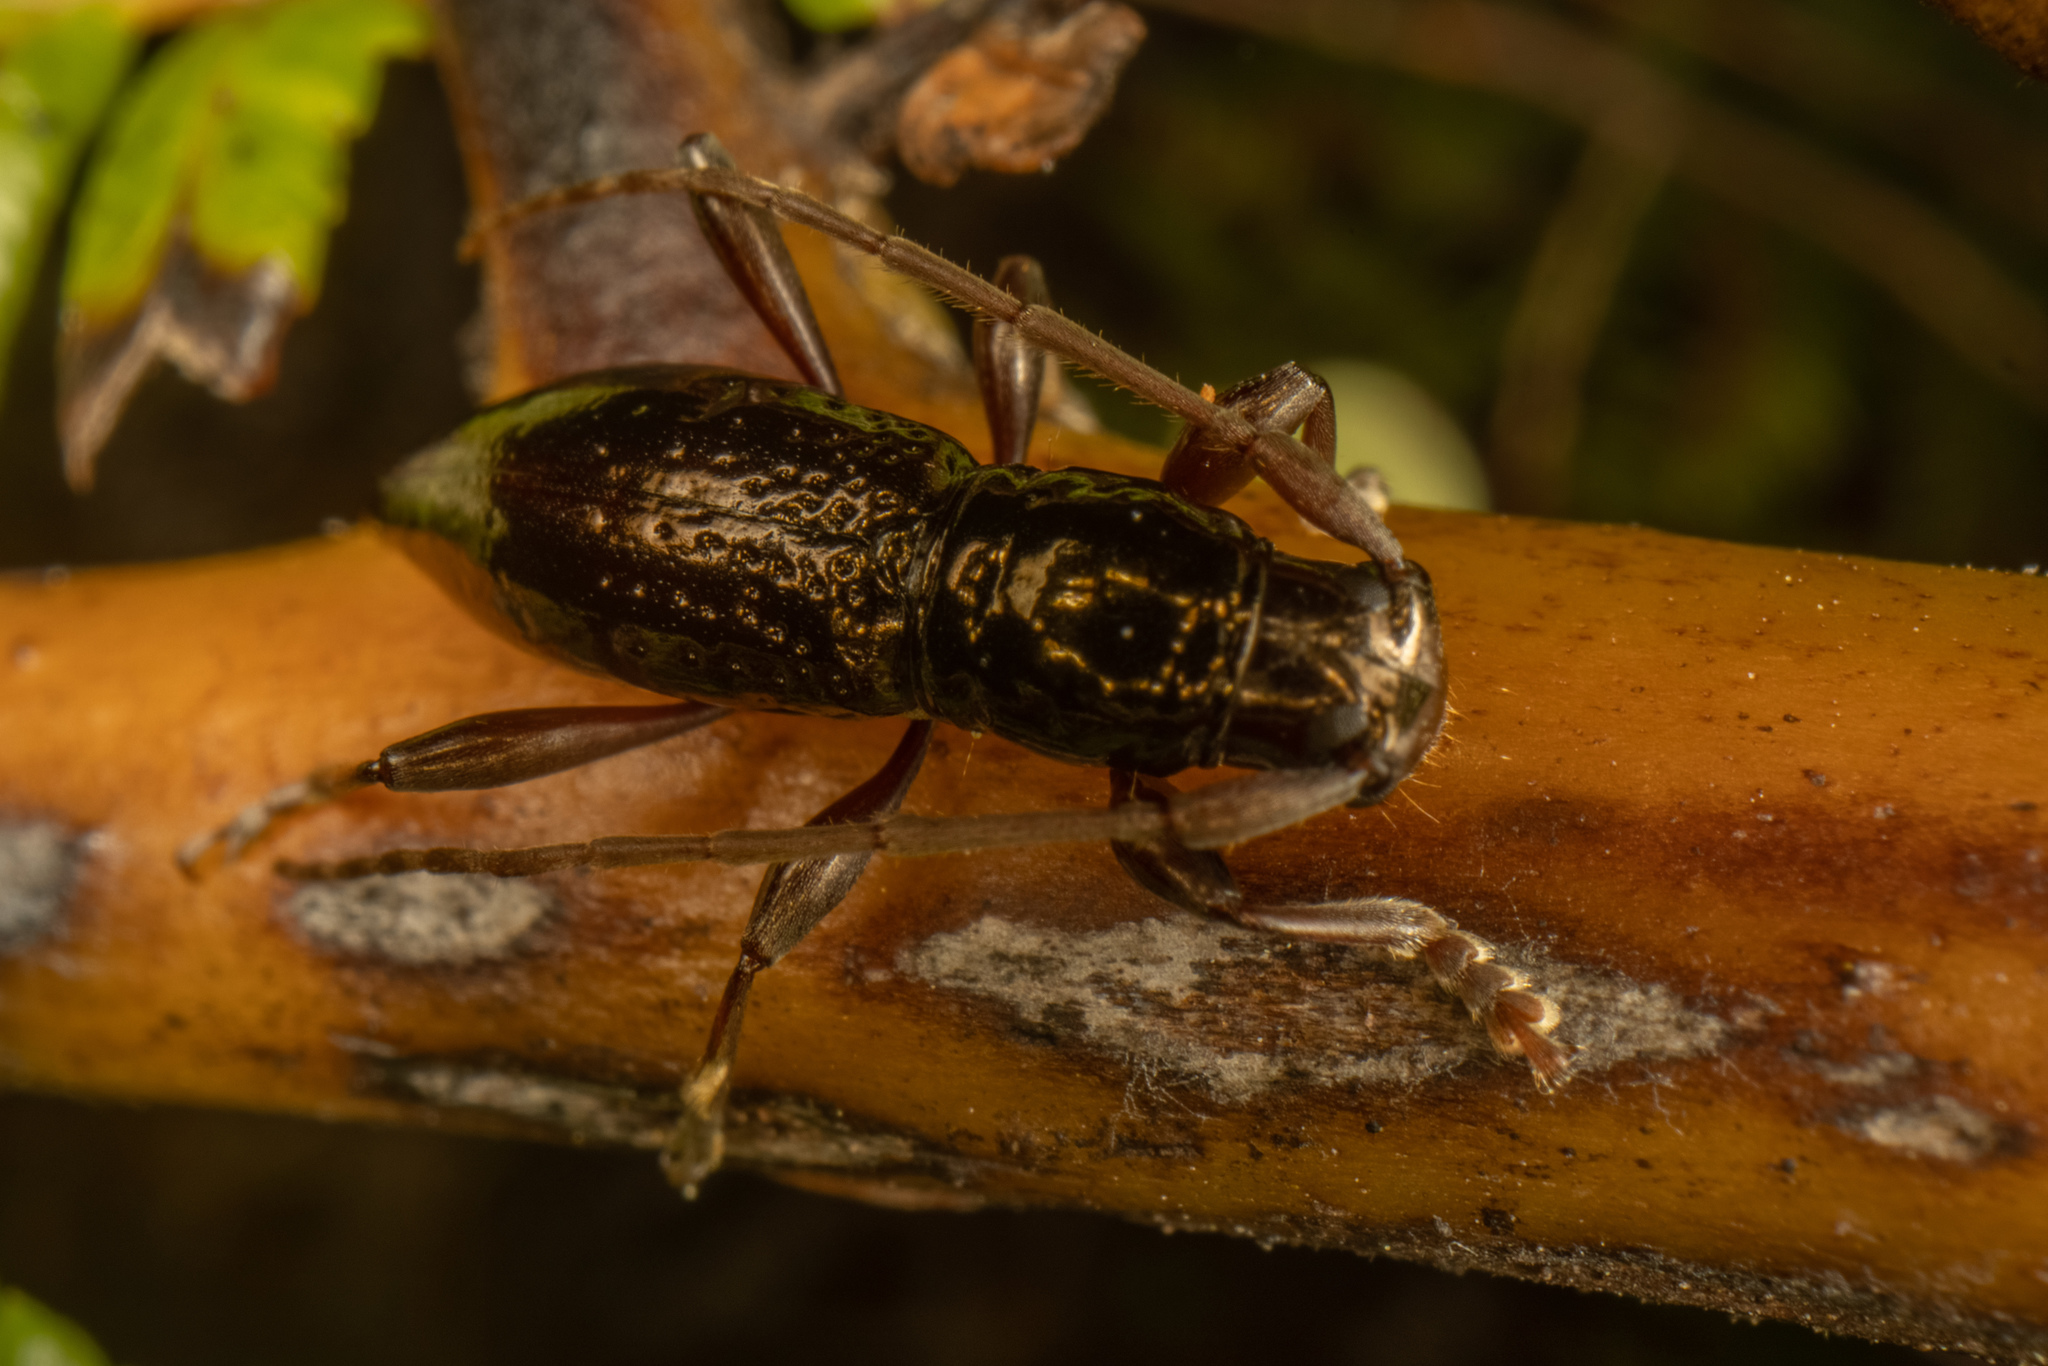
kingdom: Animalia
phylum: Arthropoda
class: Insecta
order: Coleoptera
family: Cerambycidae
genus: Xylotoles
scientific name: Xylotoles nudus
